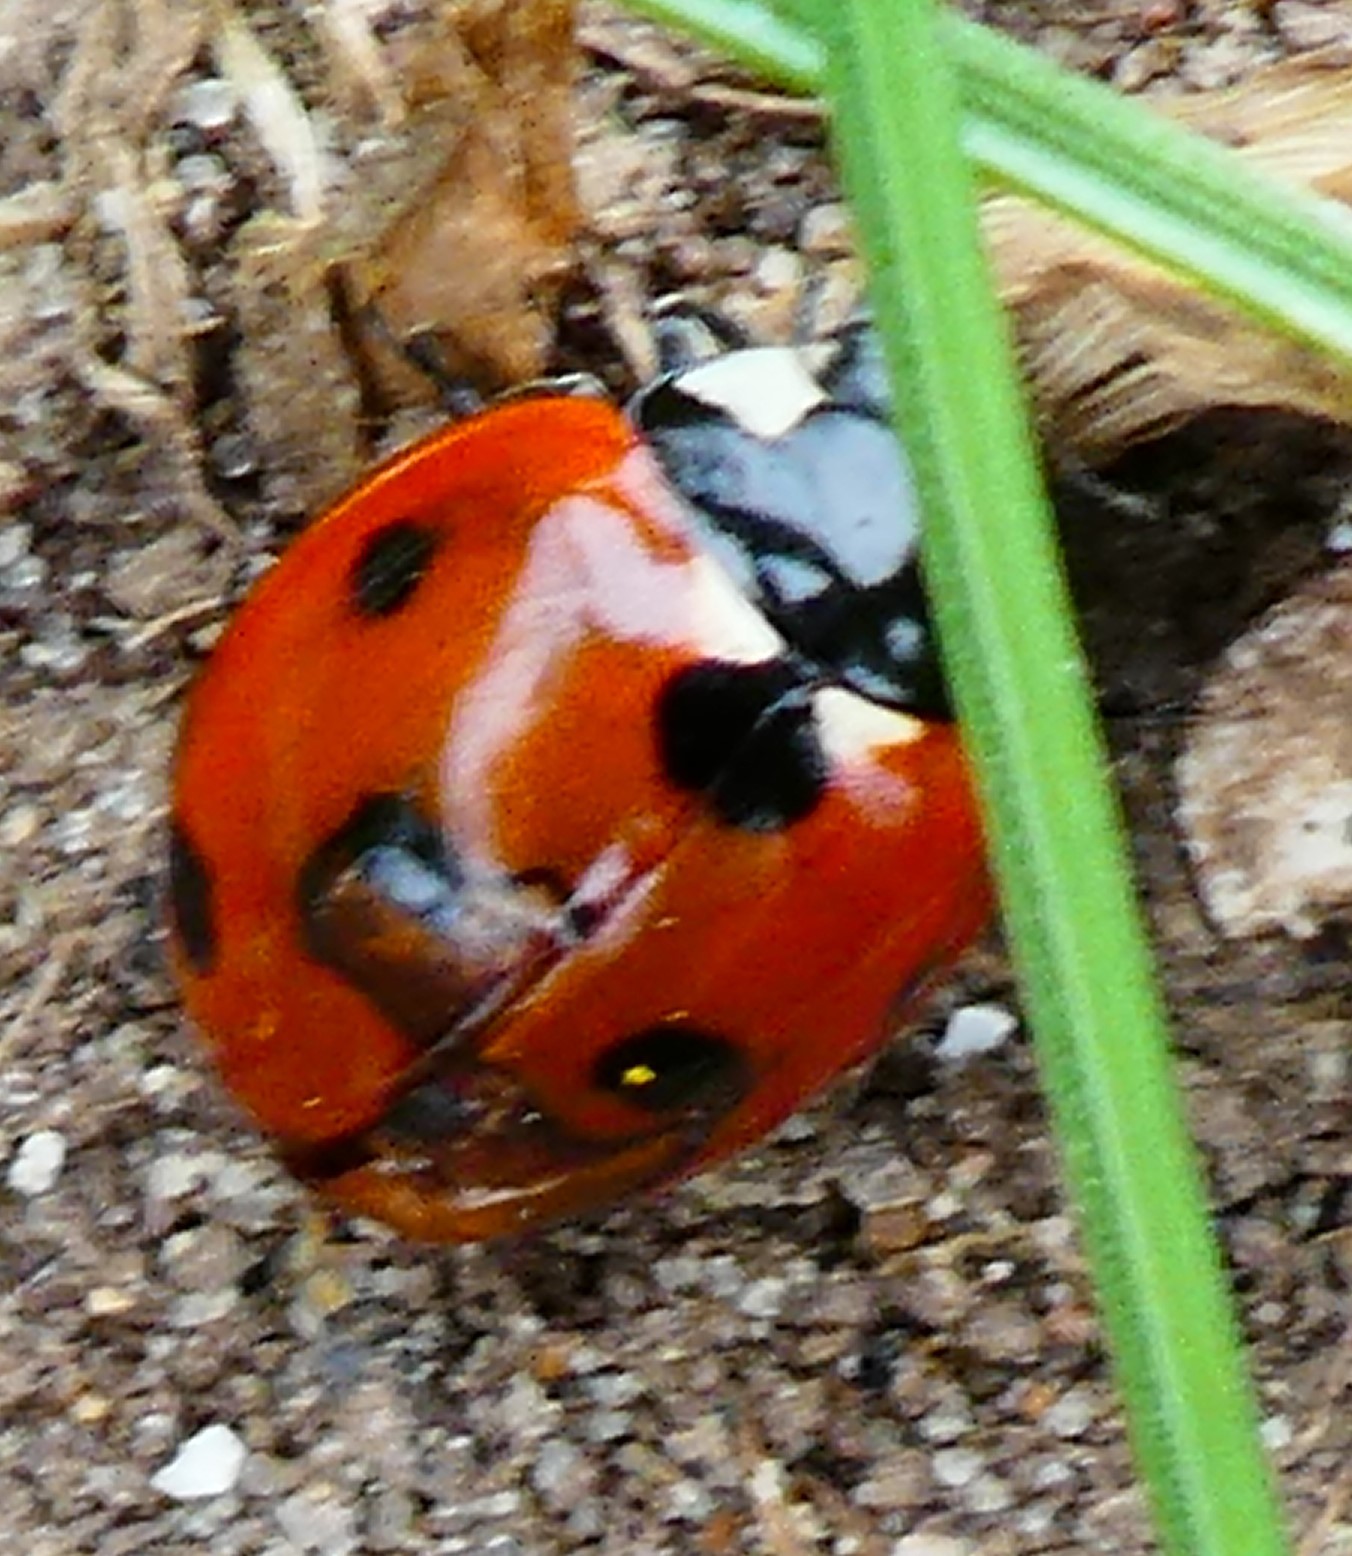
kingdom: Animalia
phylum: Arthropoda
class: Insecta
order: Coleoptera
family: Coccinellidae
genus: Coccinella
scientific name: Coccinella septempunctata
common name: Sevenspotted lady beetle
